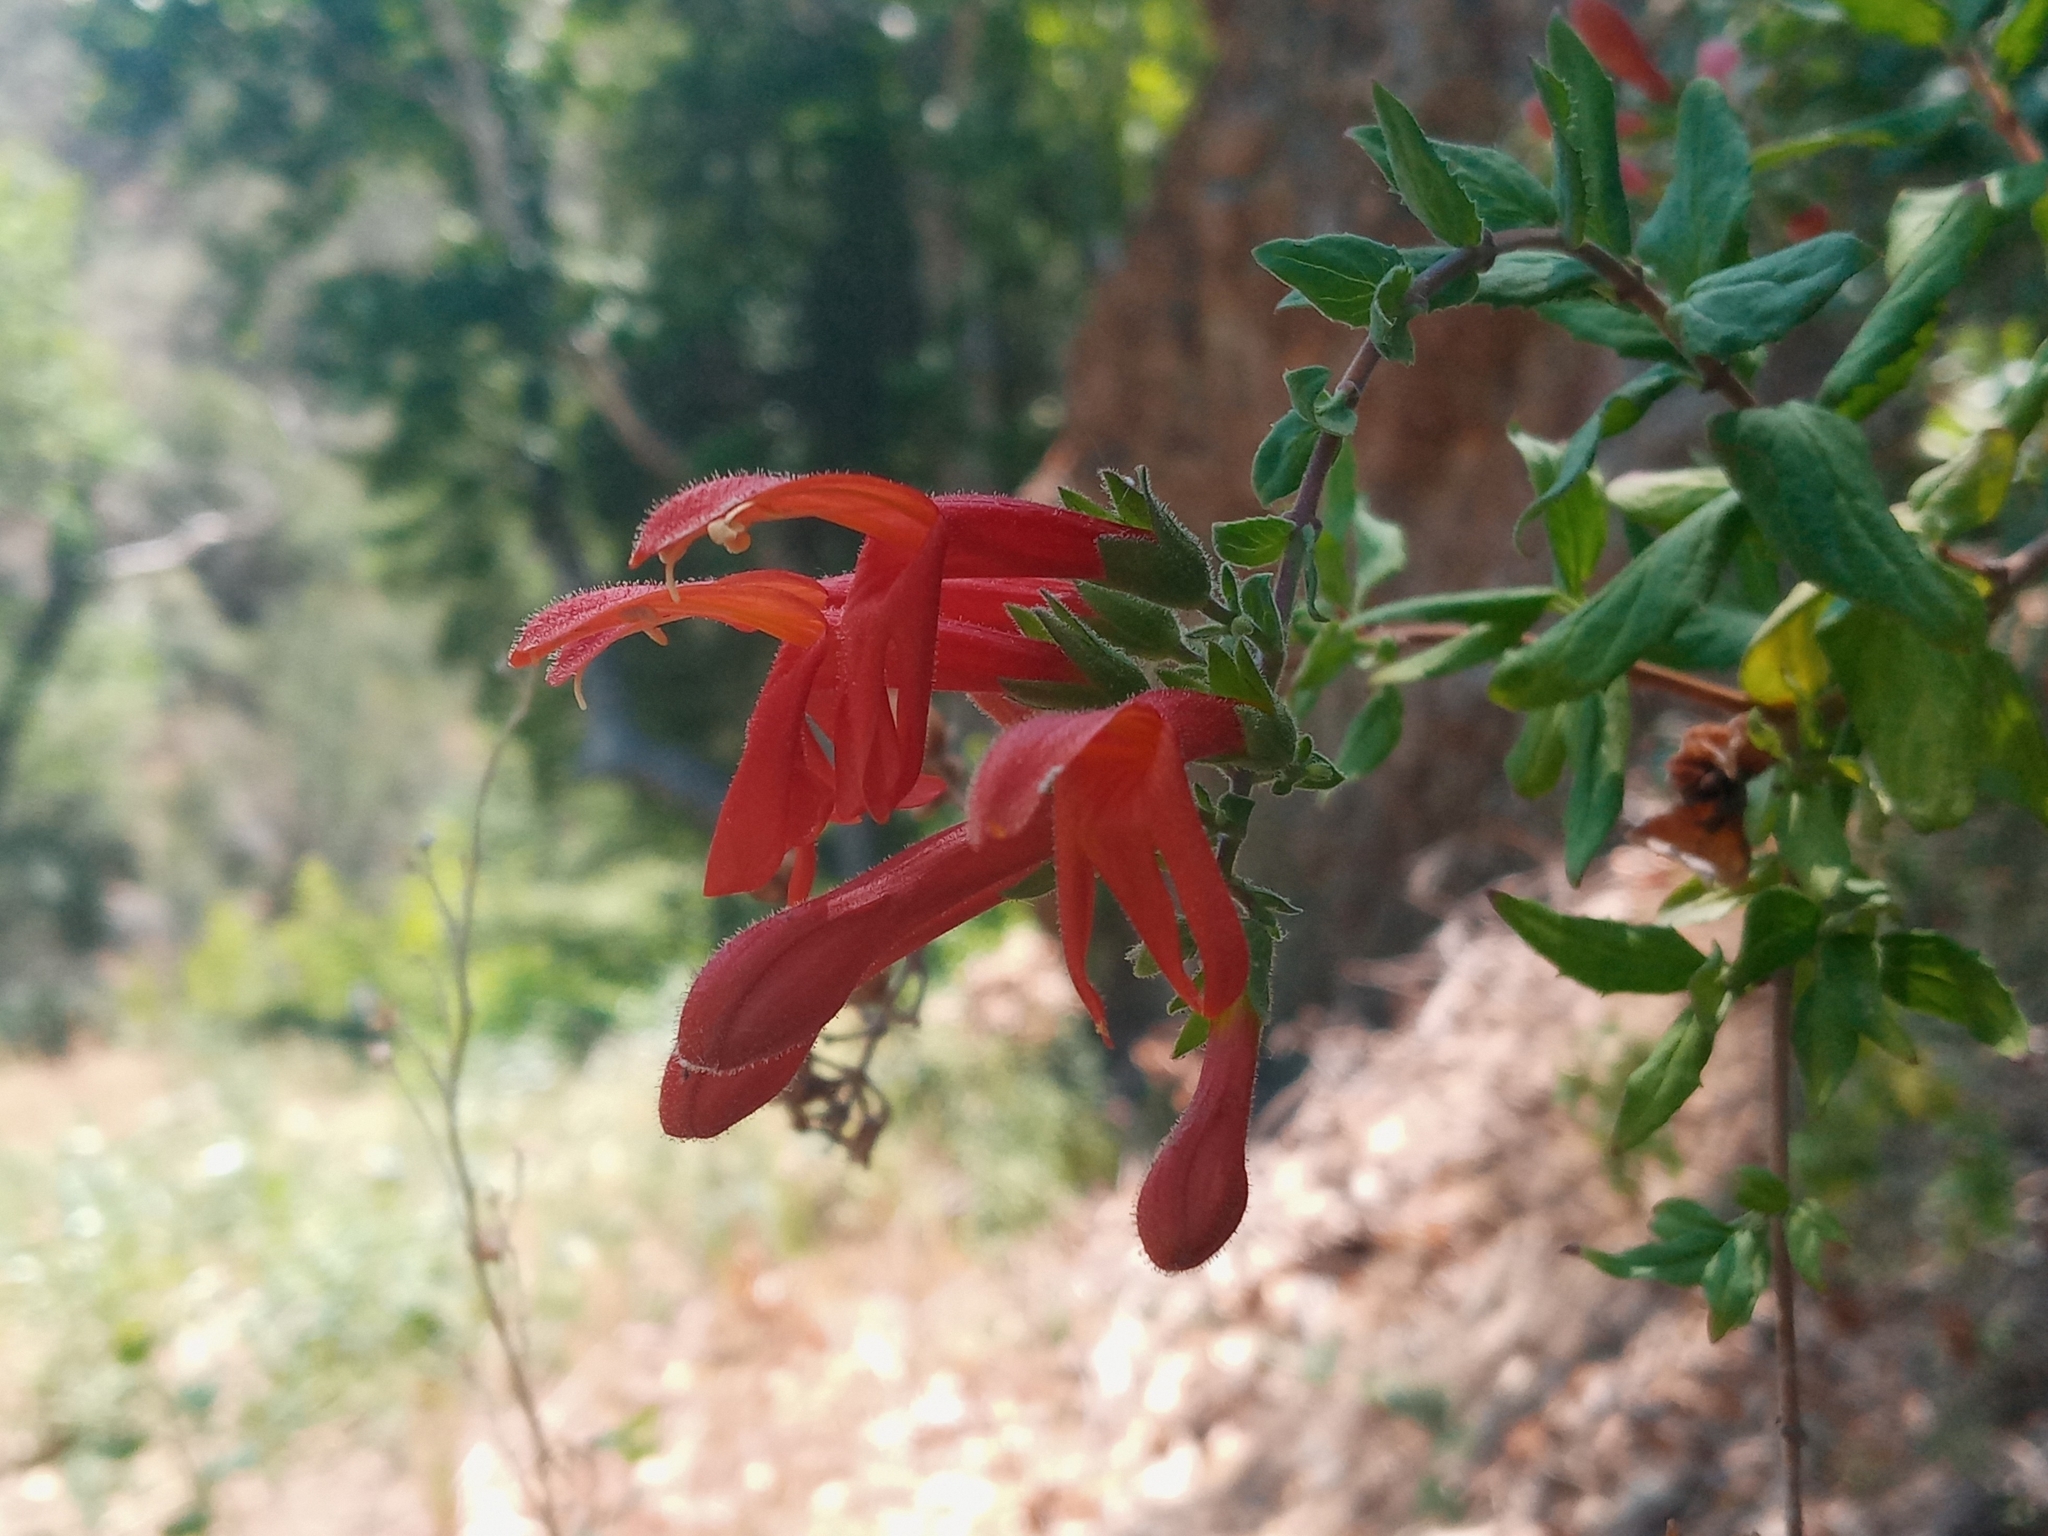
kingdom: Plantae
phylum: Tracheophyta
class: Magnoliopsida
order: Lamiales
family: Plantaginaceae
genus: Keckiella
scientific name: Keckiella cordifolia
